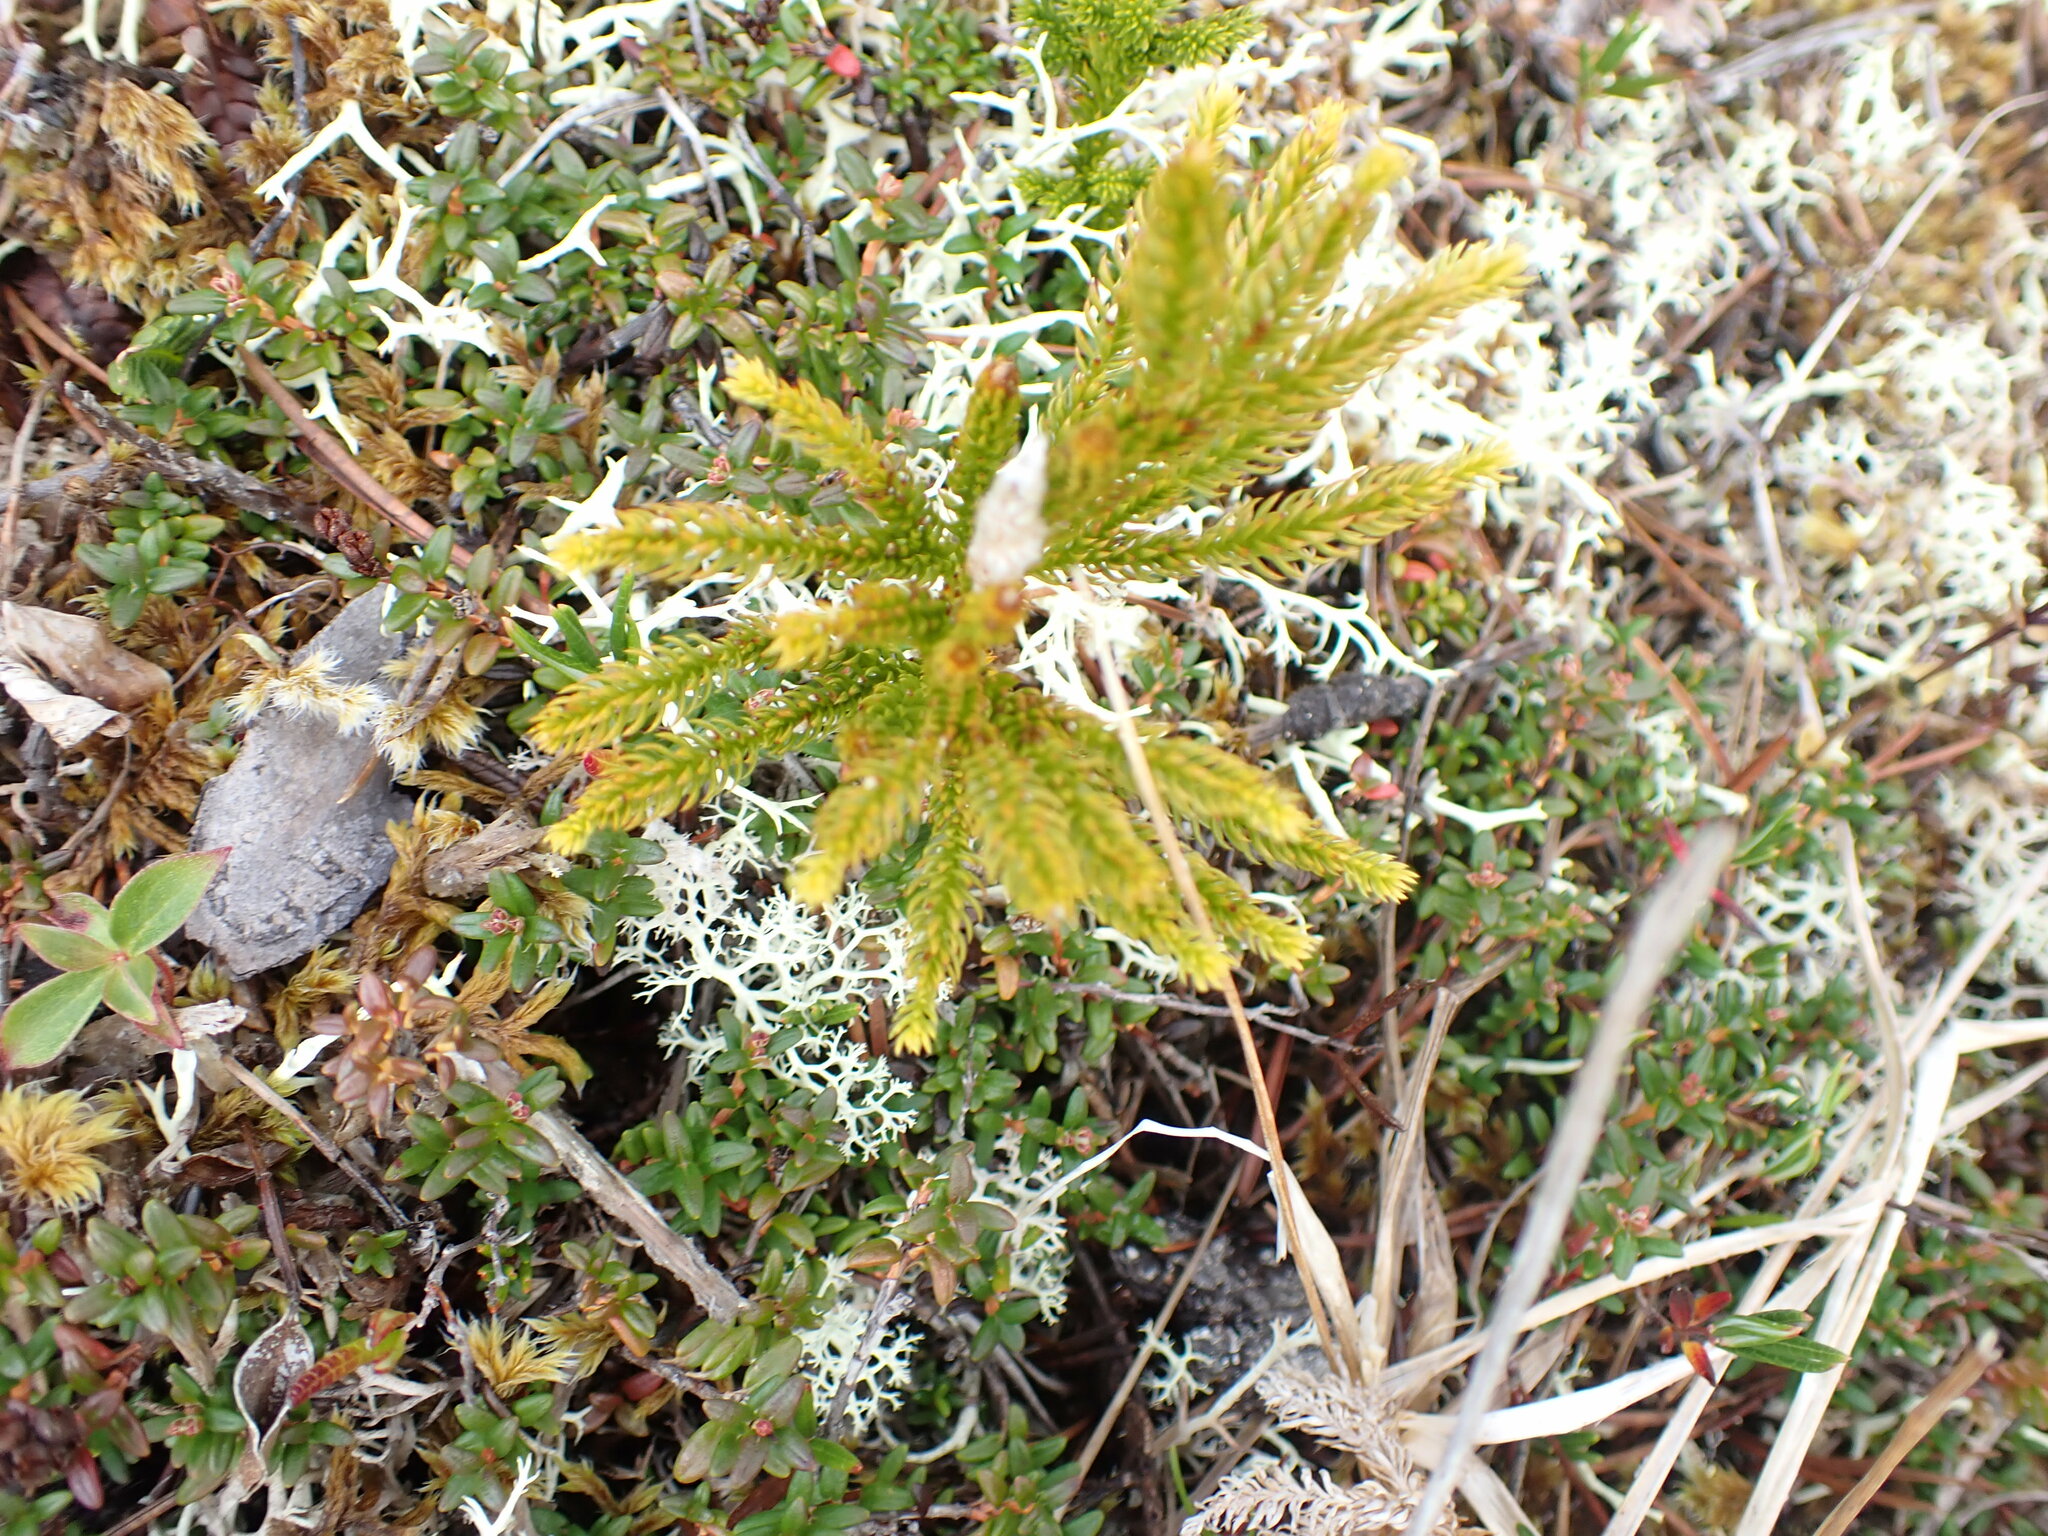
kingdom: Plantae
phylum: Tracheophyta
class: Lycopodiopsida
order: Lycopodiales
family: Lycopodiaceae
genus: Dendrolycopodium
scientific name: Dendrolycopodium dendroideum
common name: Northern tree-clubmoss
